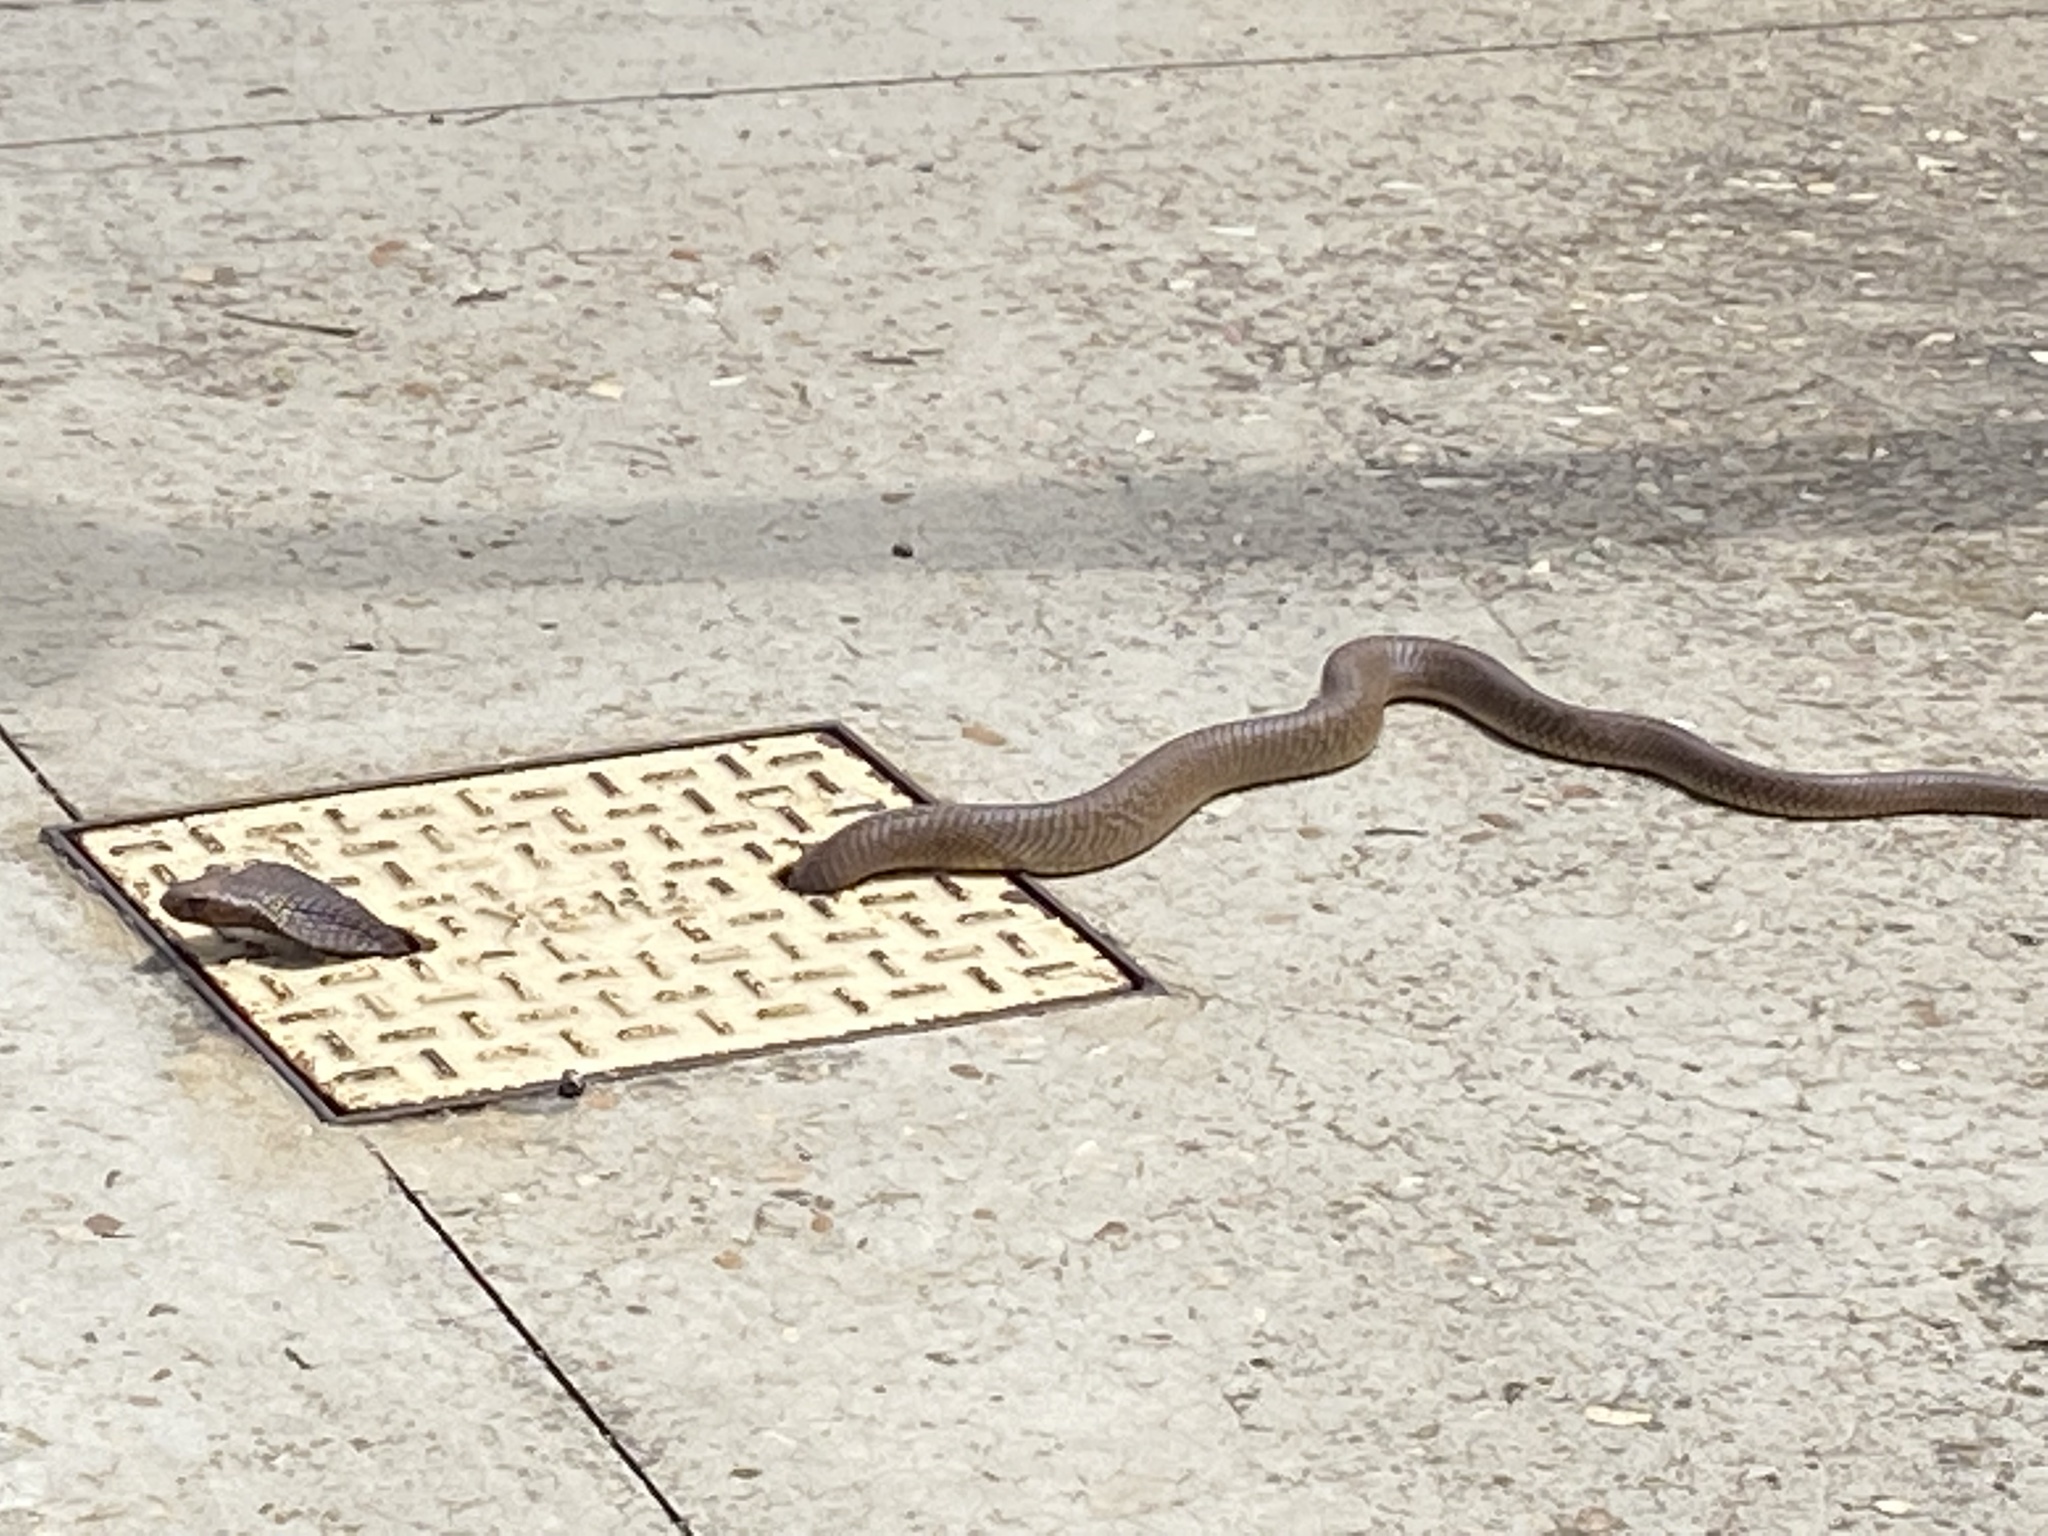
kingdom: Animalia
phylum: Chordata
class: Squamata
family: Elapidae
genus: Naja
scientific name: Naja nivea
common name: Cape cobra
